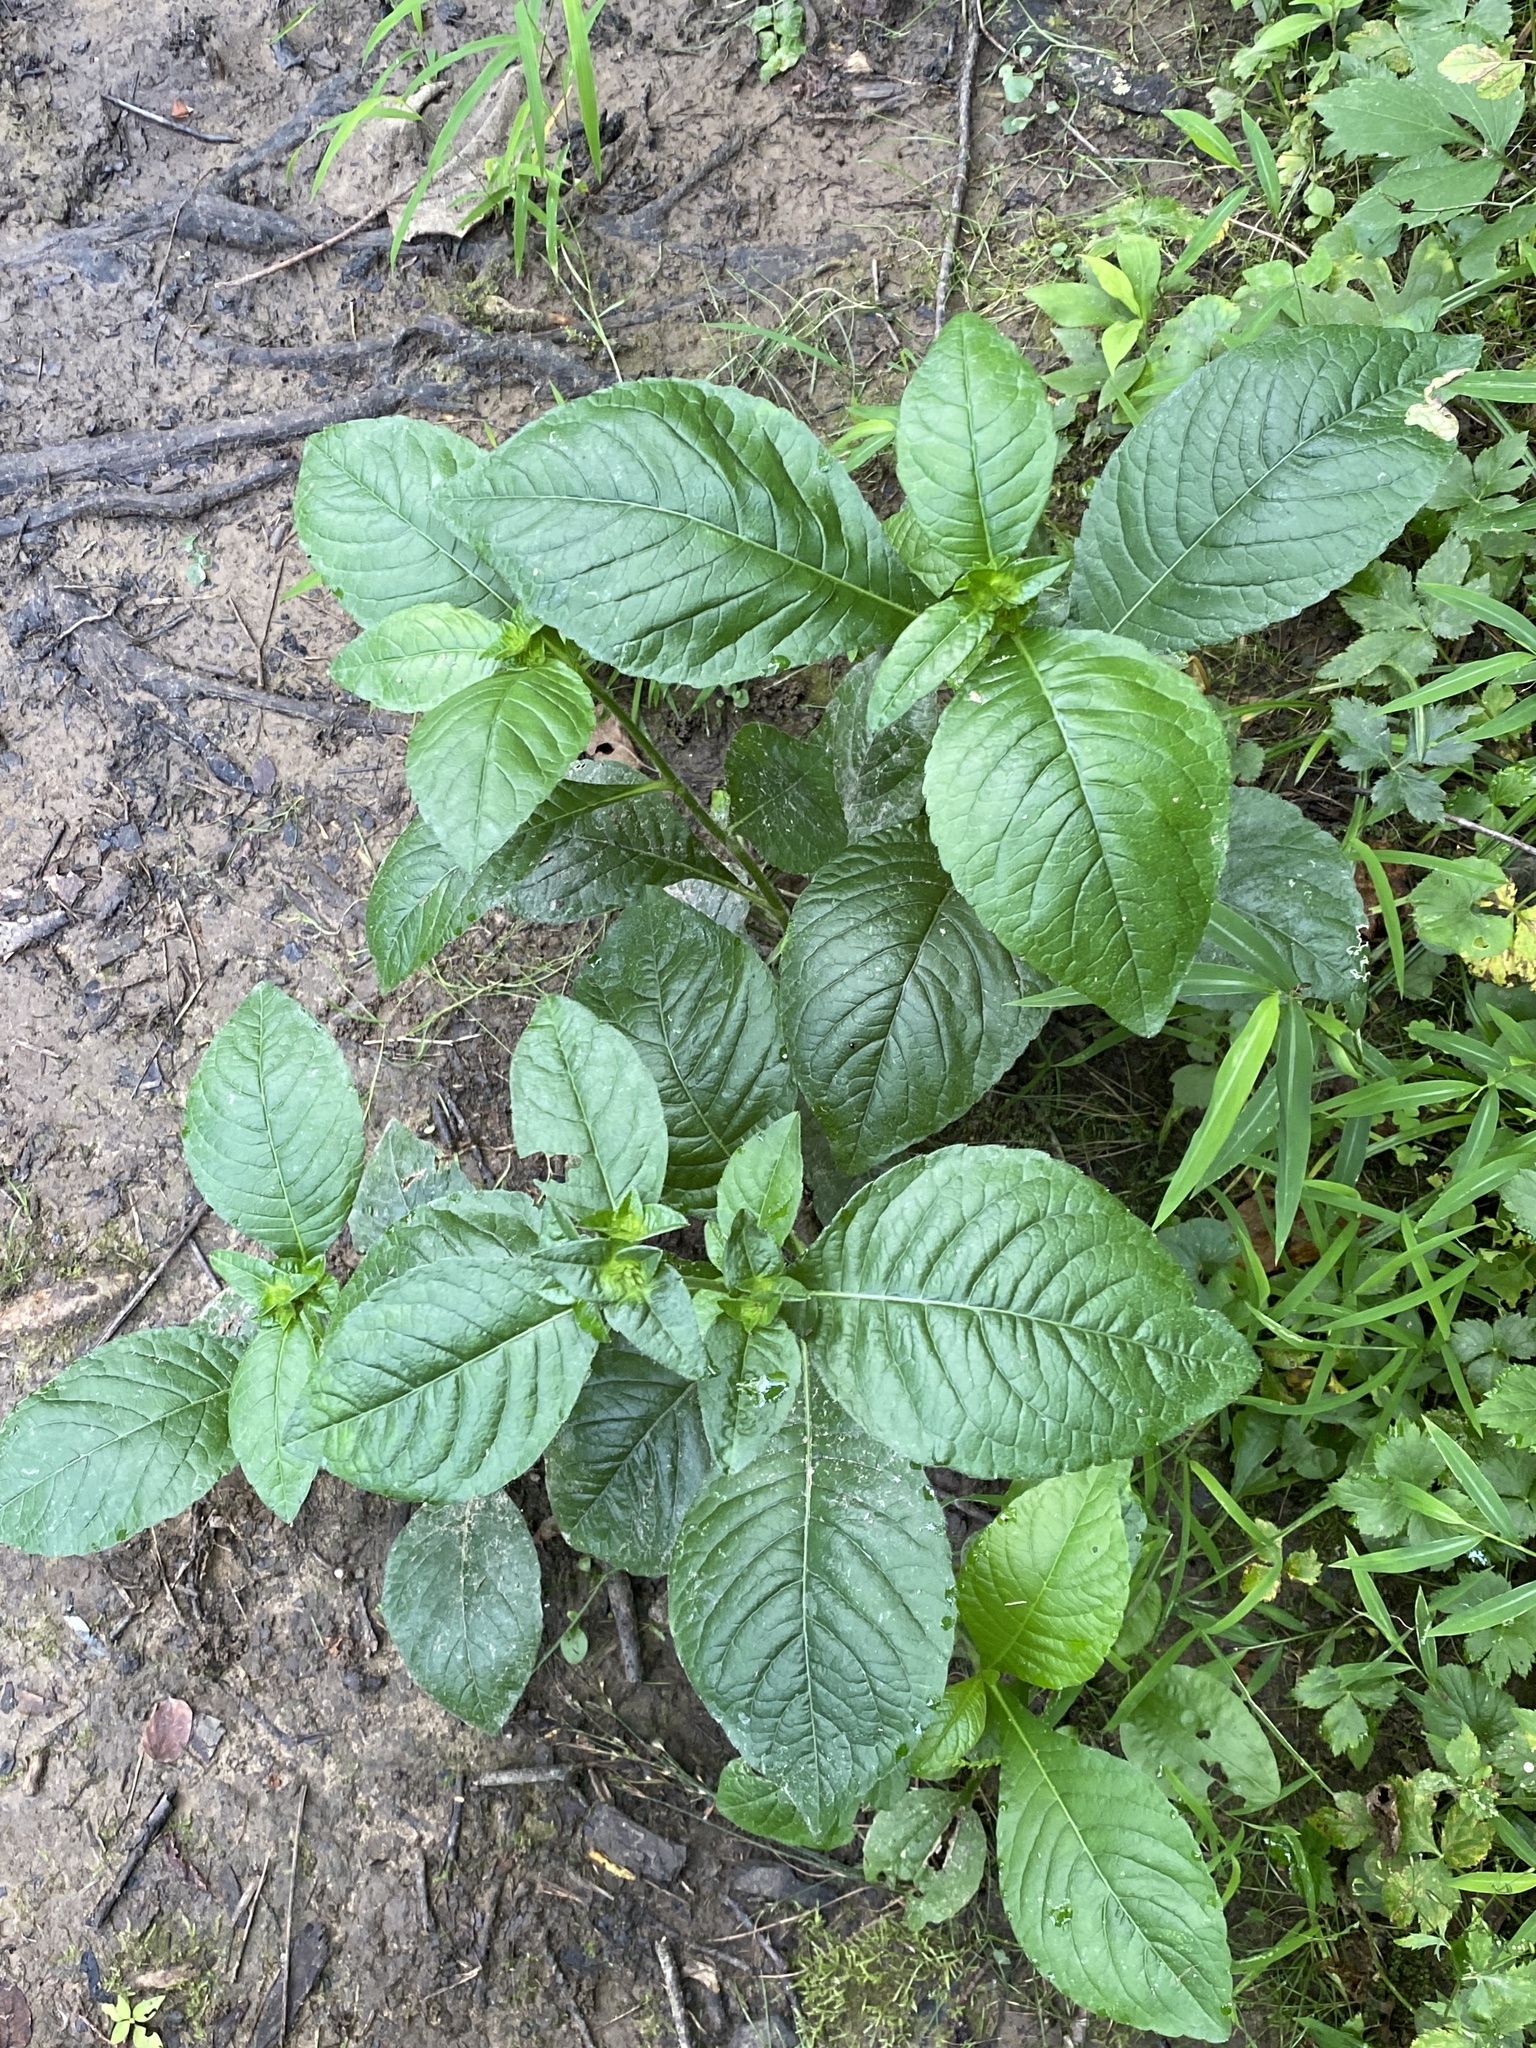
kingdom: Plantae
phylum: Tracheophyta
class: Magnoliopsida
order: Asterales
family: Asteraceae
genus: Elephantopus
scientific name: Elephantopus carolinianus
